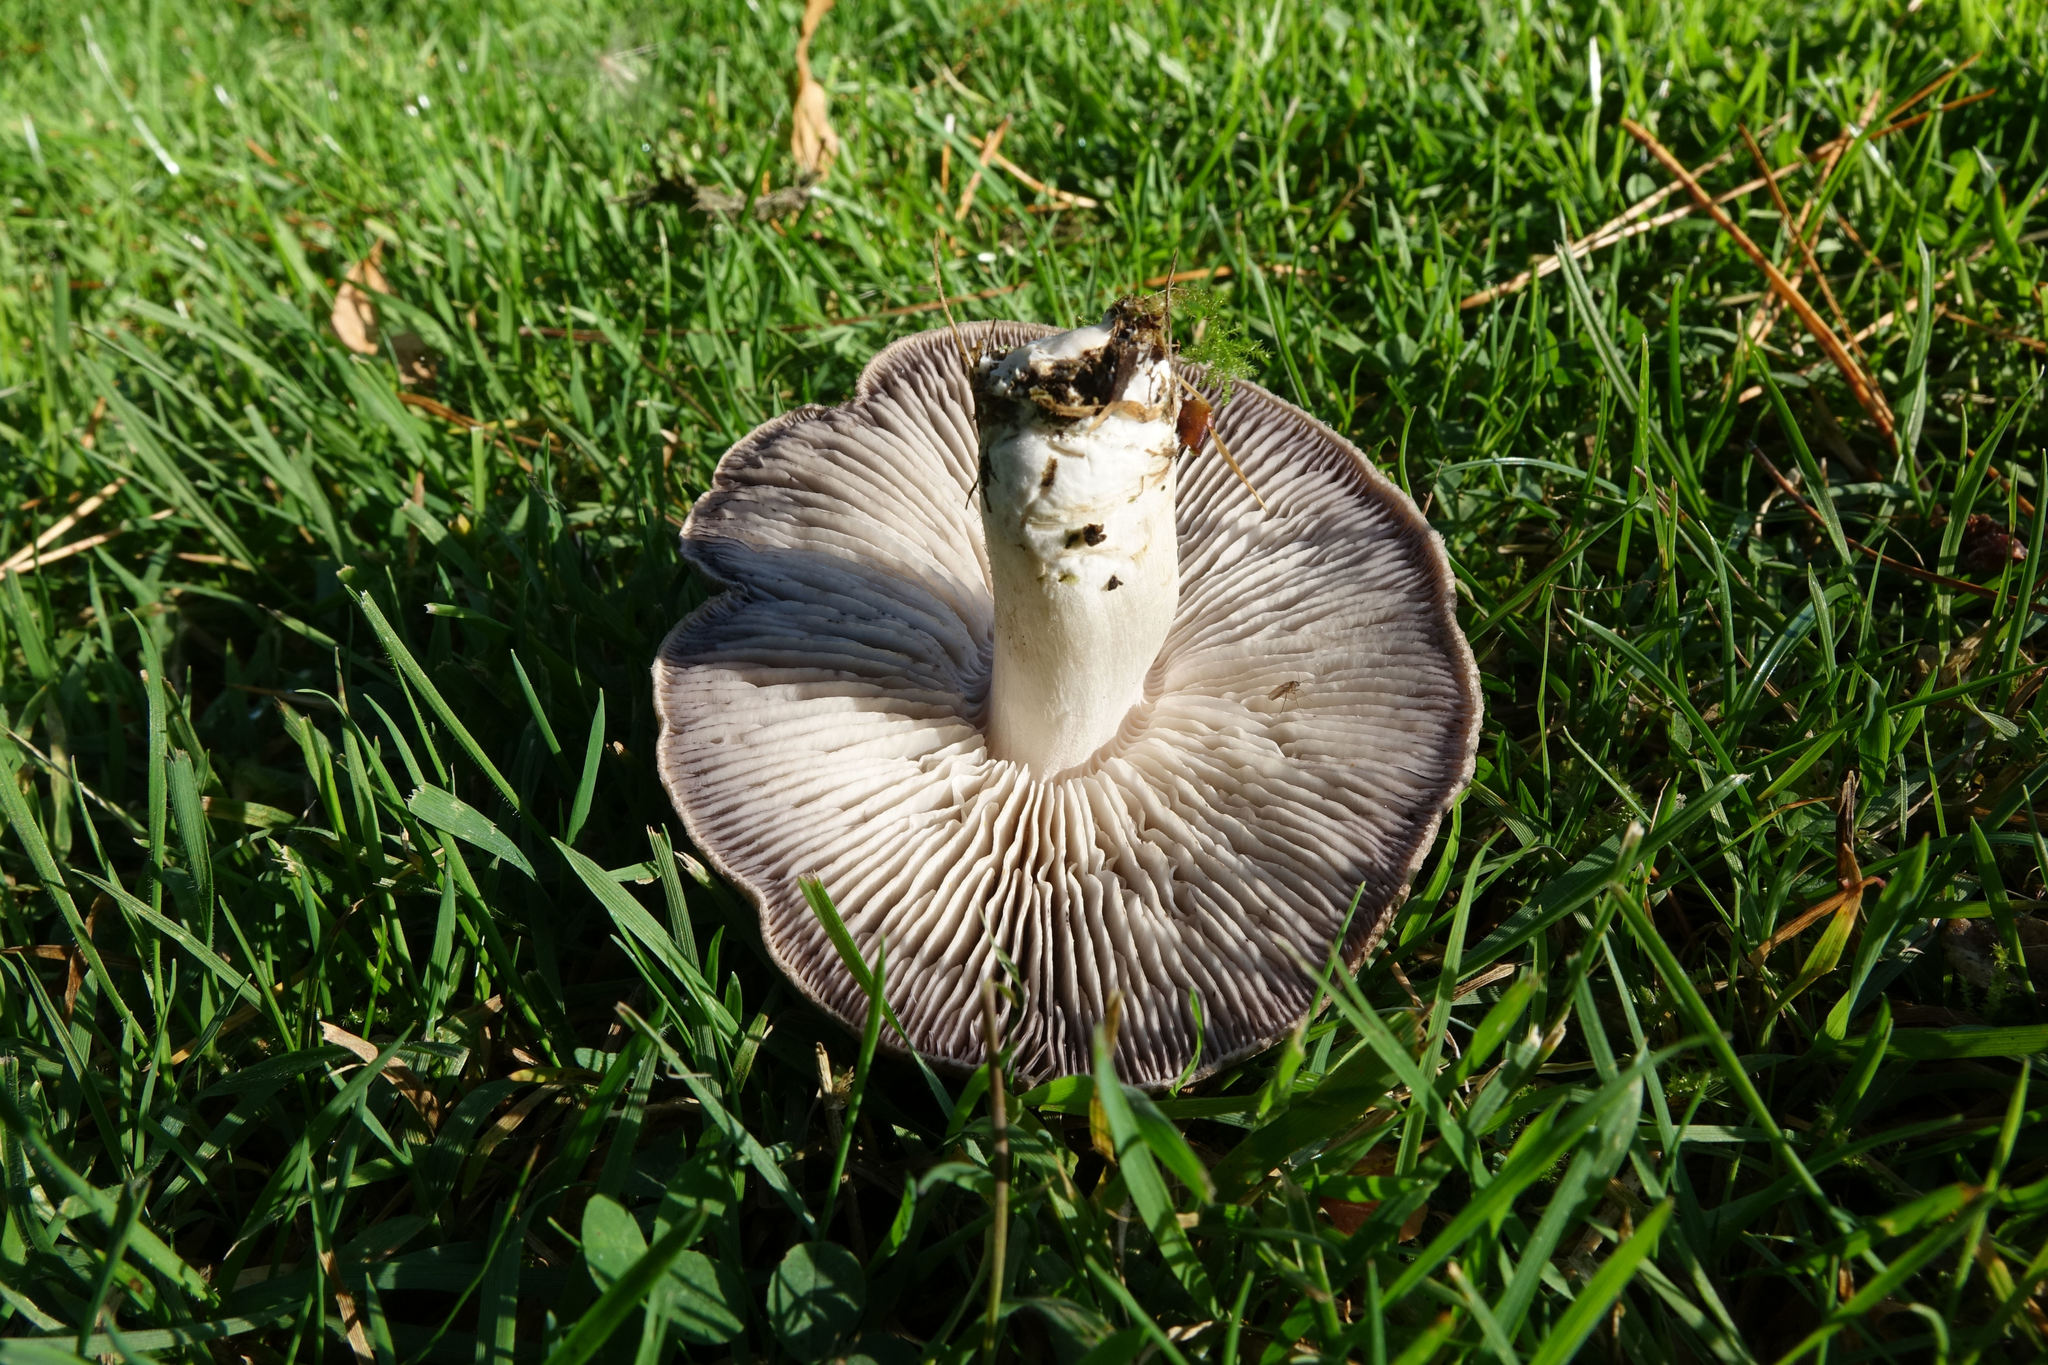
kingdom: Fungi
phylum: Basidiomycota
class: Agaricomycetes
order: Agaricales
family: Tricholomataceae
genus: Tricholoma
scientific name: Tricholoma terreum
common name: Grey knight
